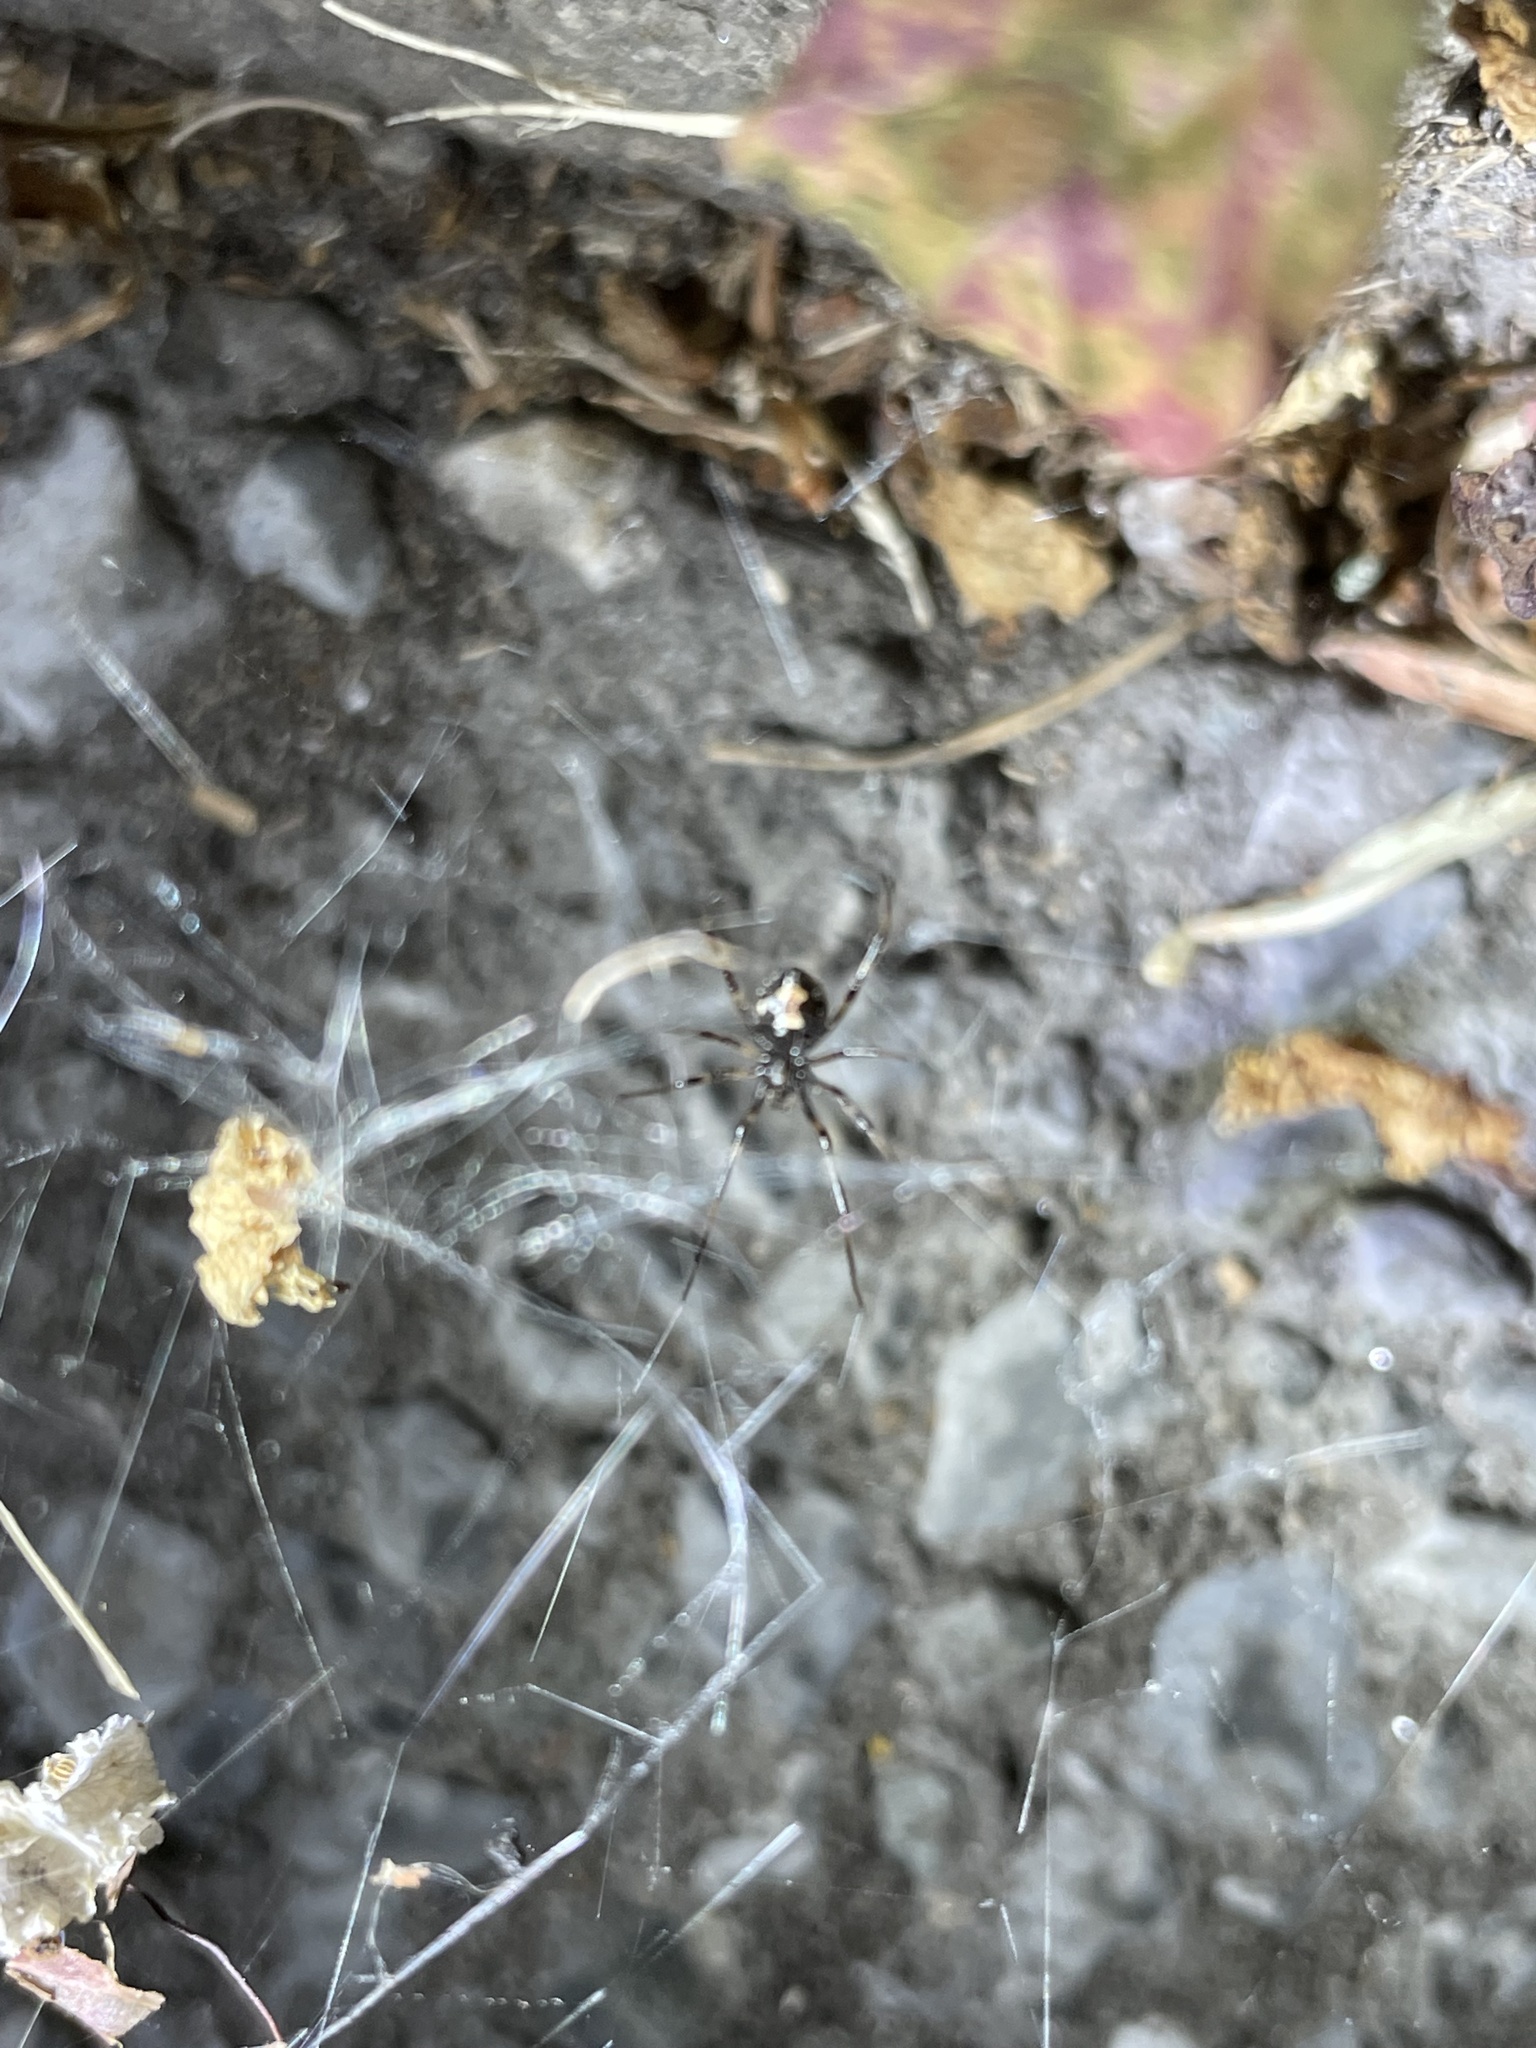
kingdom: Animalia
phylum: Arthropoda
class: Arachnida
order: Araneae
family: Theridiidae
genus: Latrodectus
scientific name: Latrodectus mactans
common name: Cobweb spiders
